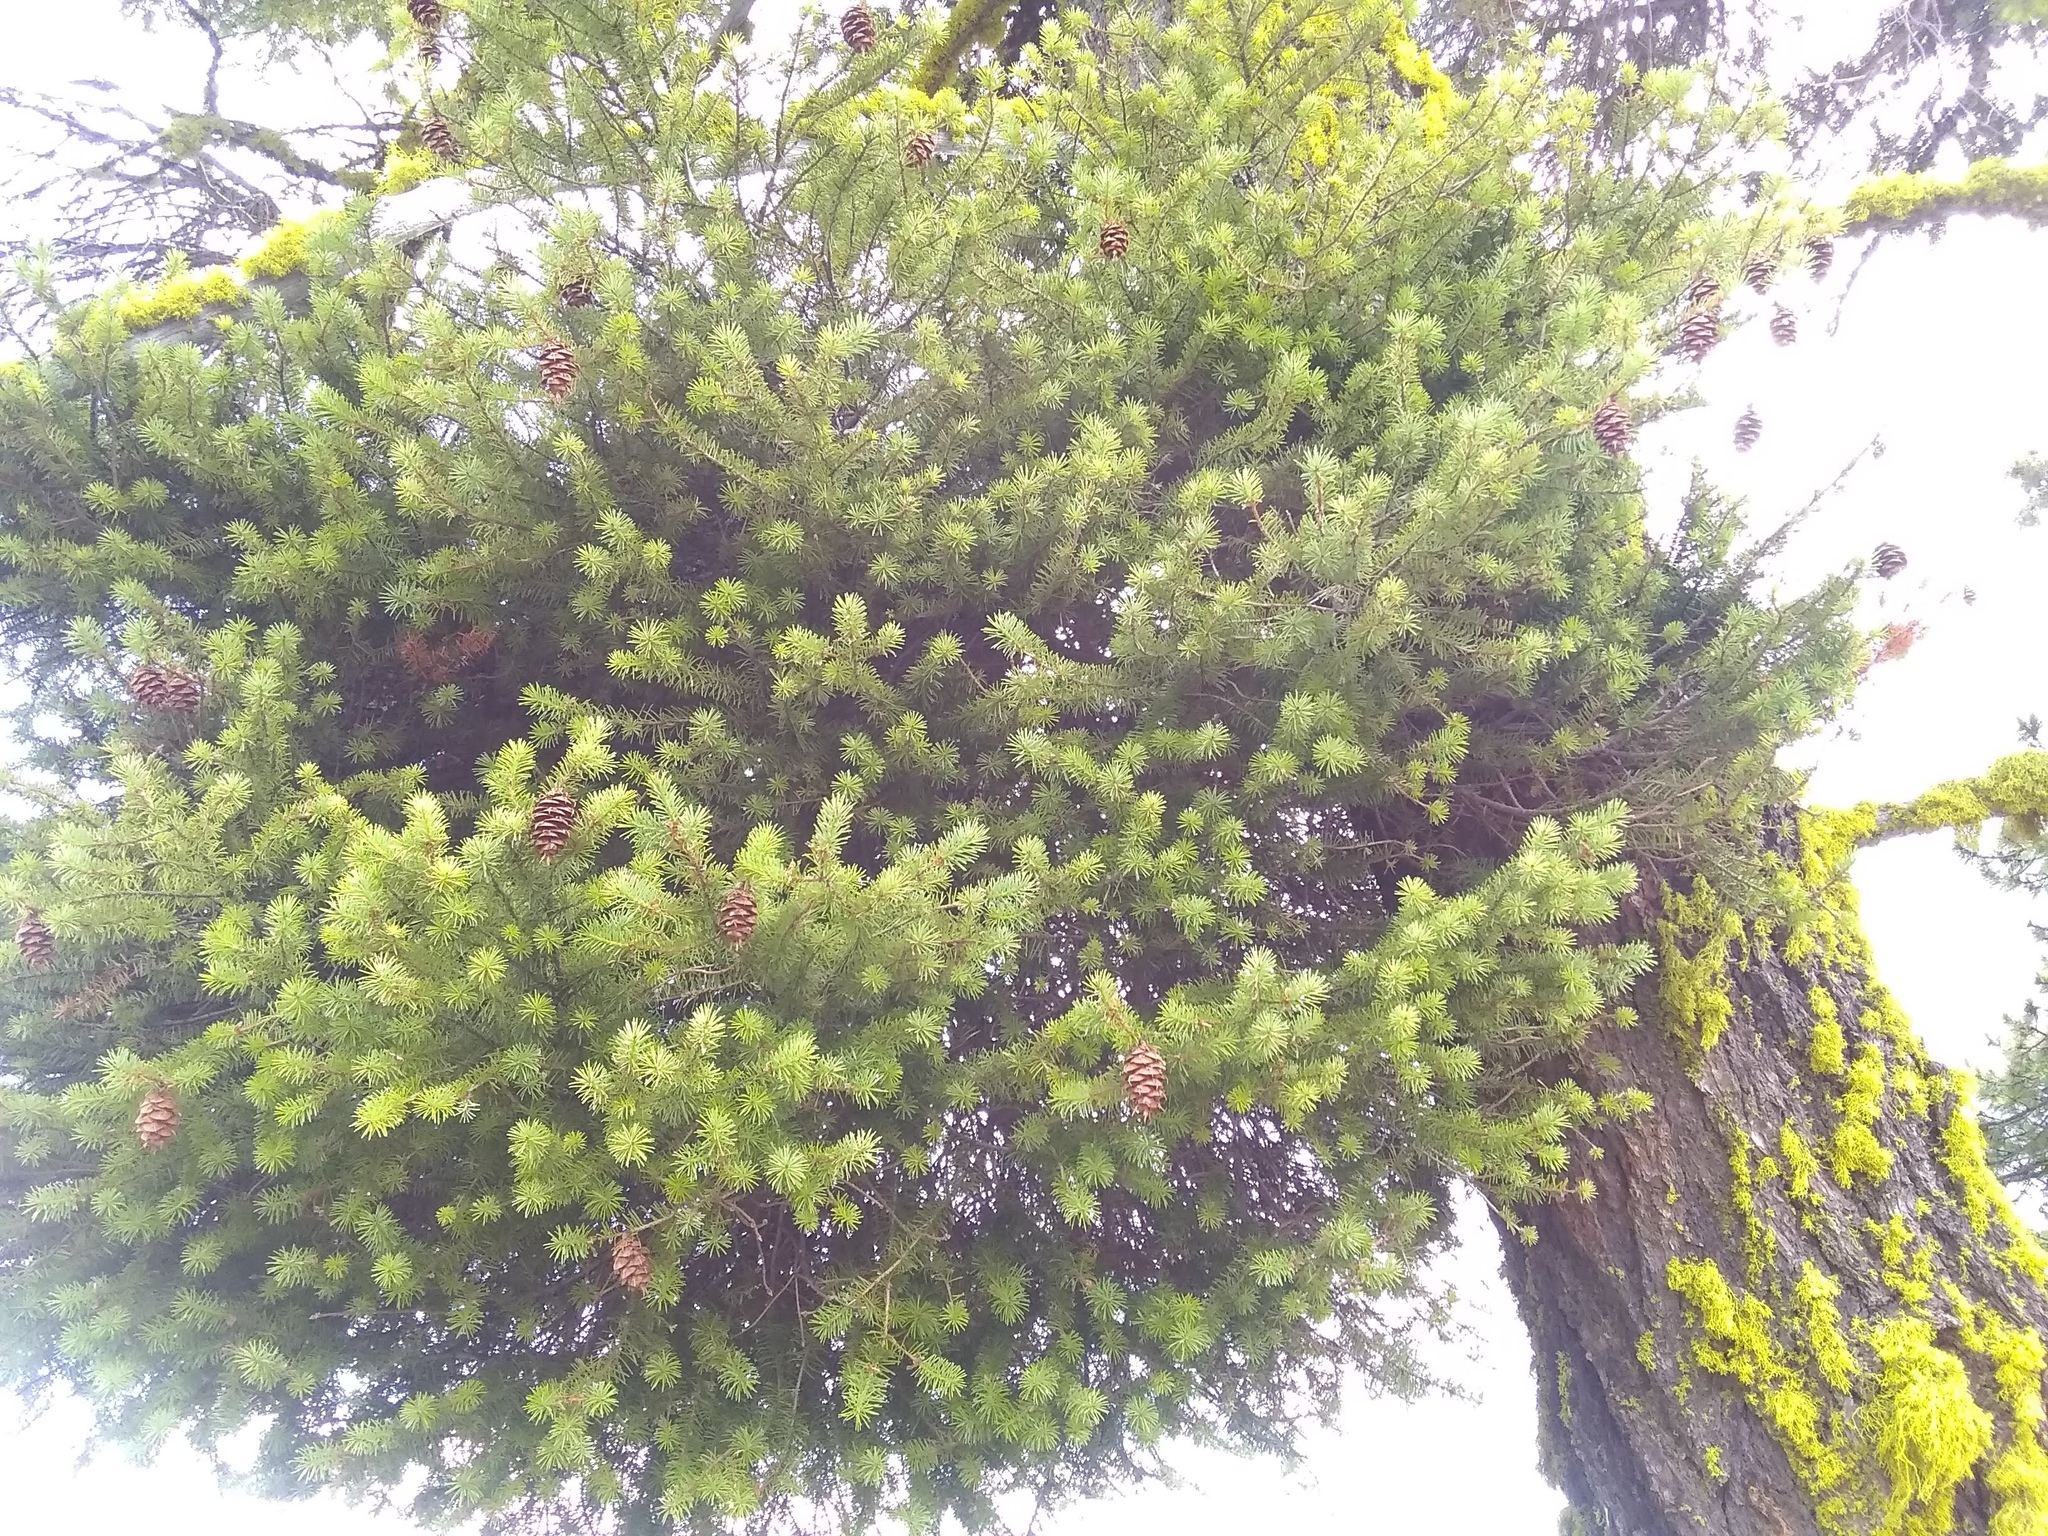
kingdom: Plantae
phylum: Tracheophyta
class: Pinopsida
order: Pinales
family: Pinaceae
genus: Pseudotsuga
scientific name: Pseudotsuga menziesii
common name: Douglas fir
